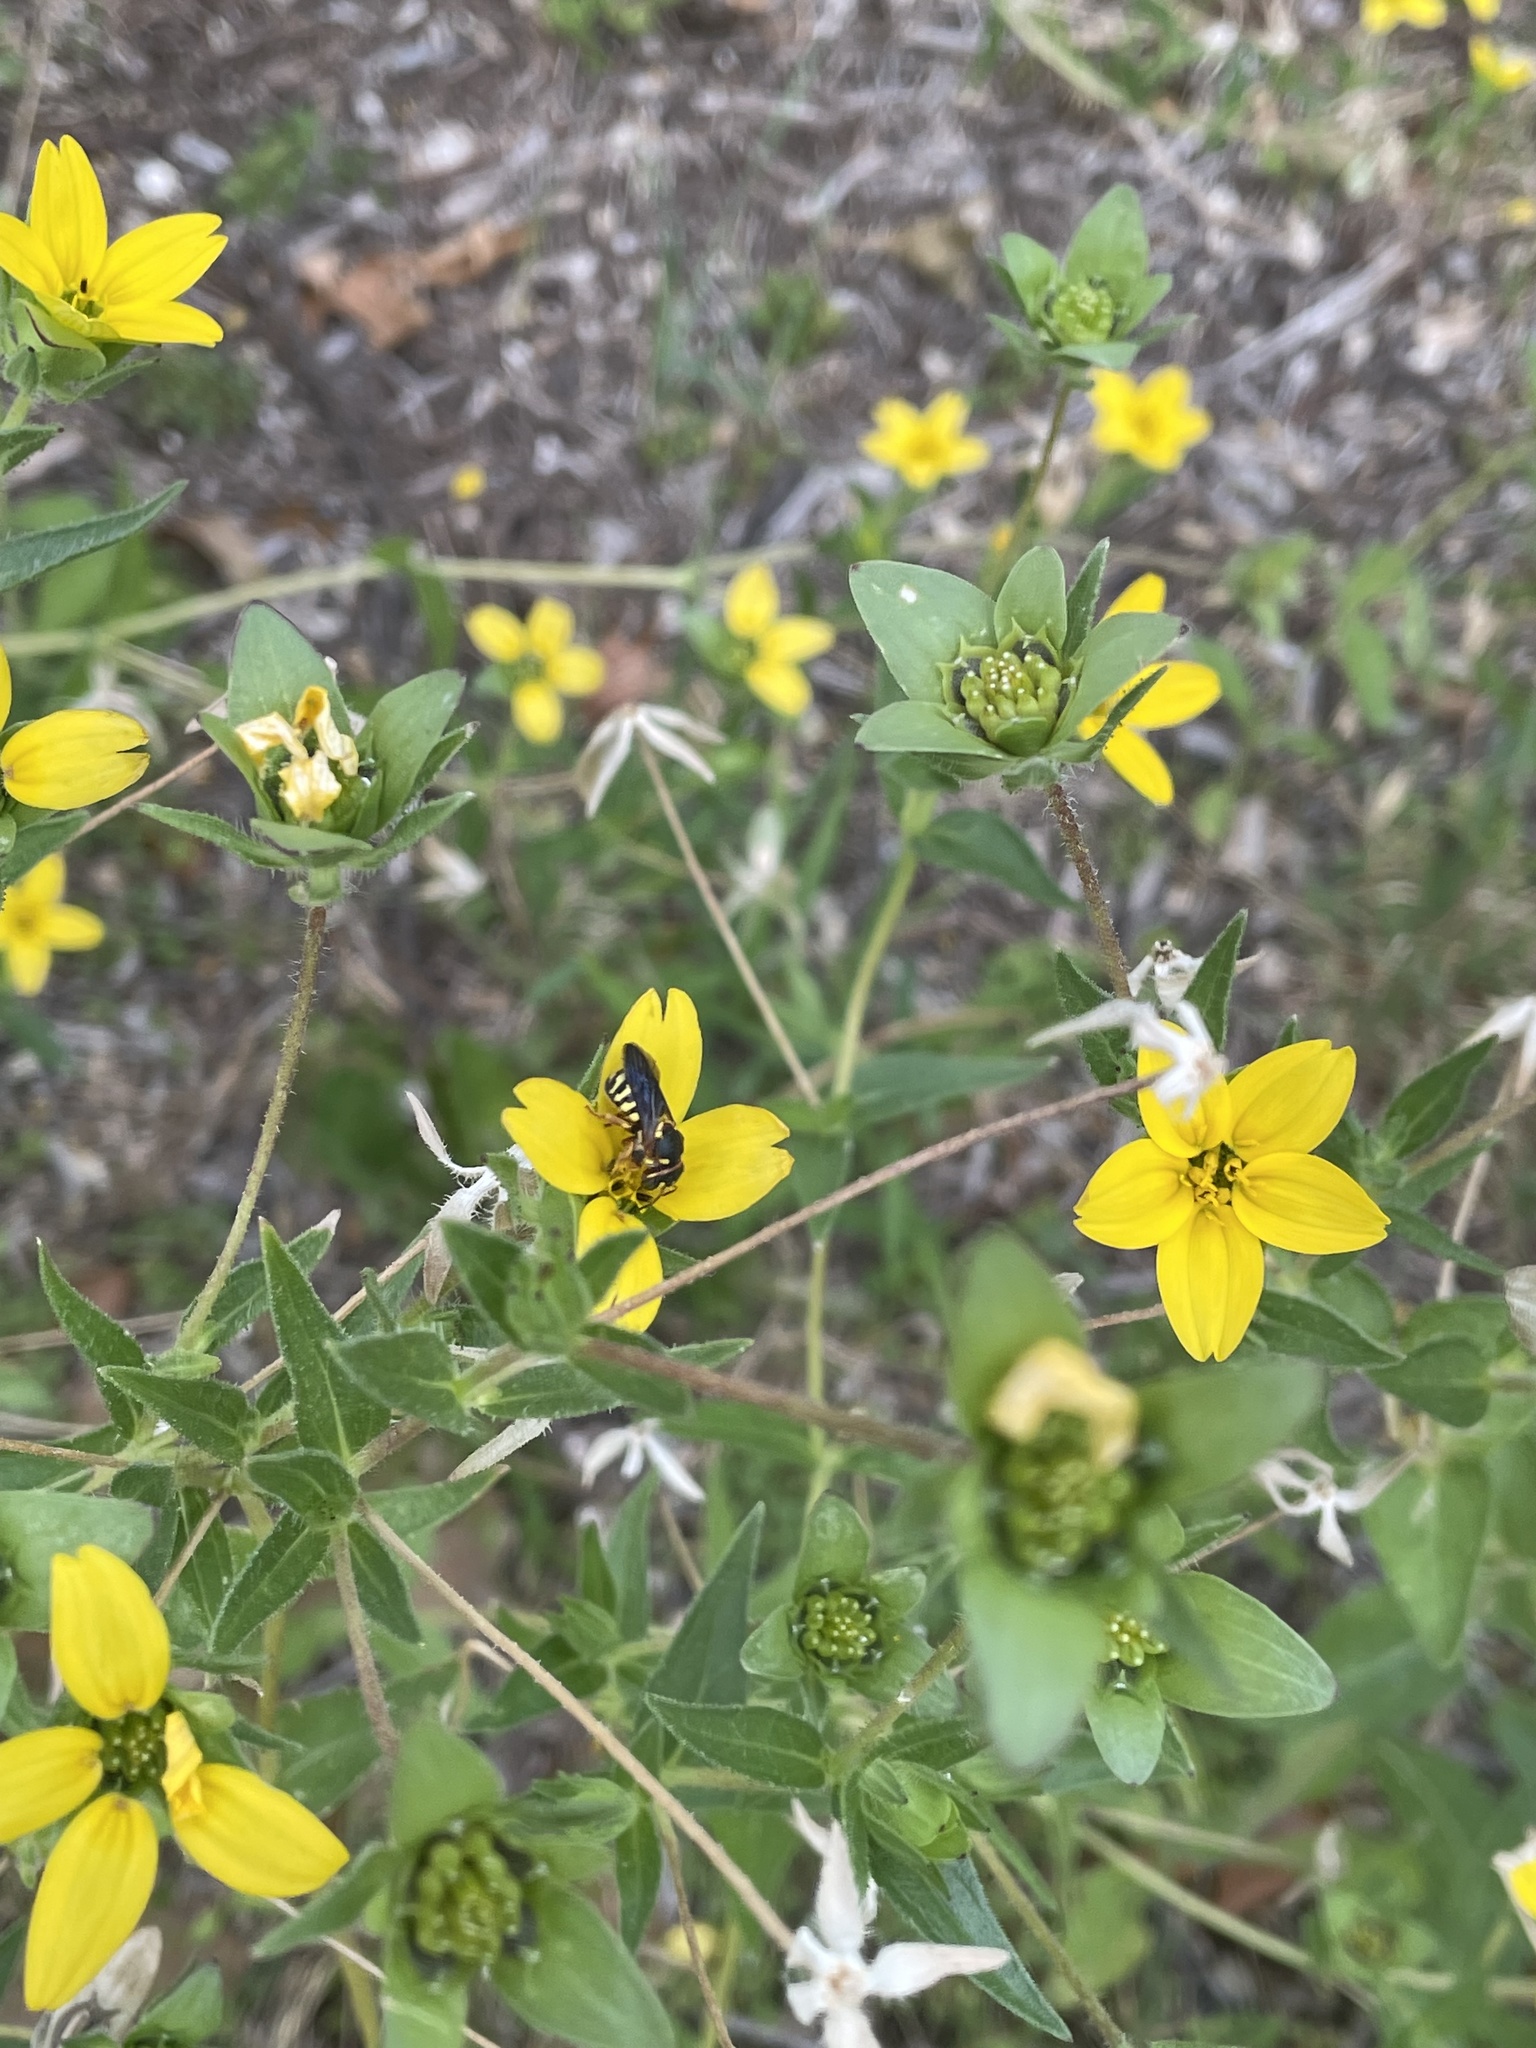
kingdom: Animalia
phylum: Arthropoda
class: Insecta
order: Hymenoptera
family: Megachilidae
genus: Dianthidium
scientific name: Dianthidium
